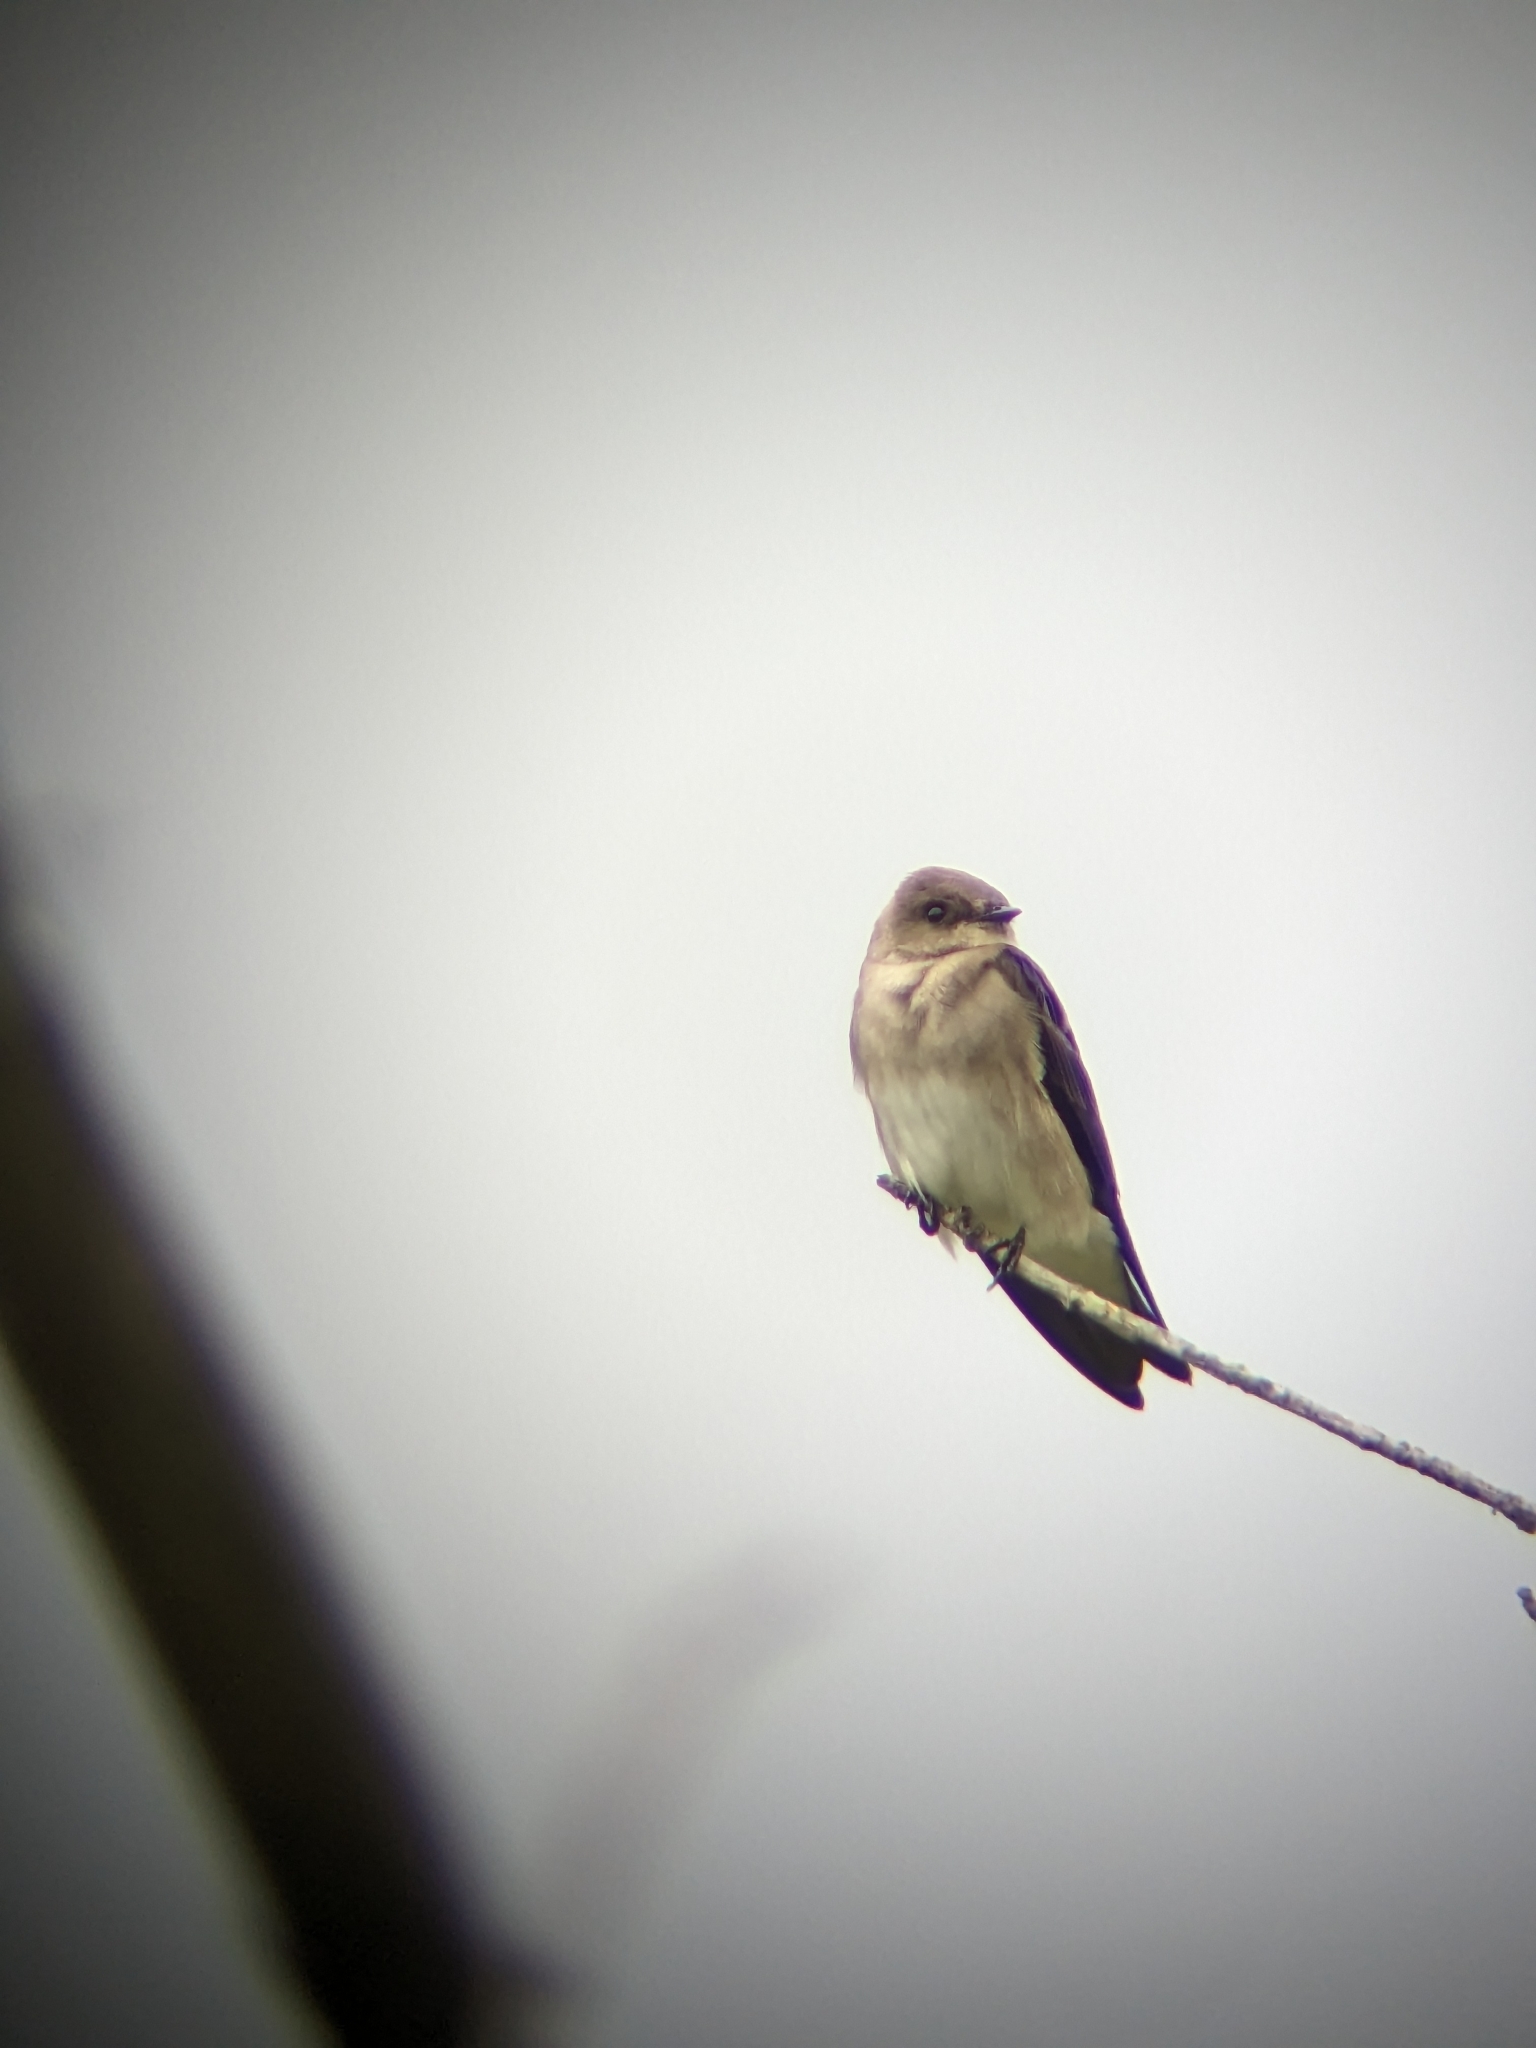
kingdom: Animalia
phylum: Chordata
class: Aves
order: Passeriformes
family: Hirundinidae
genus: Stelgidopteryx
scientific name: Stelgidopteryx serripennis
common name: Northern rough-winged swallow
